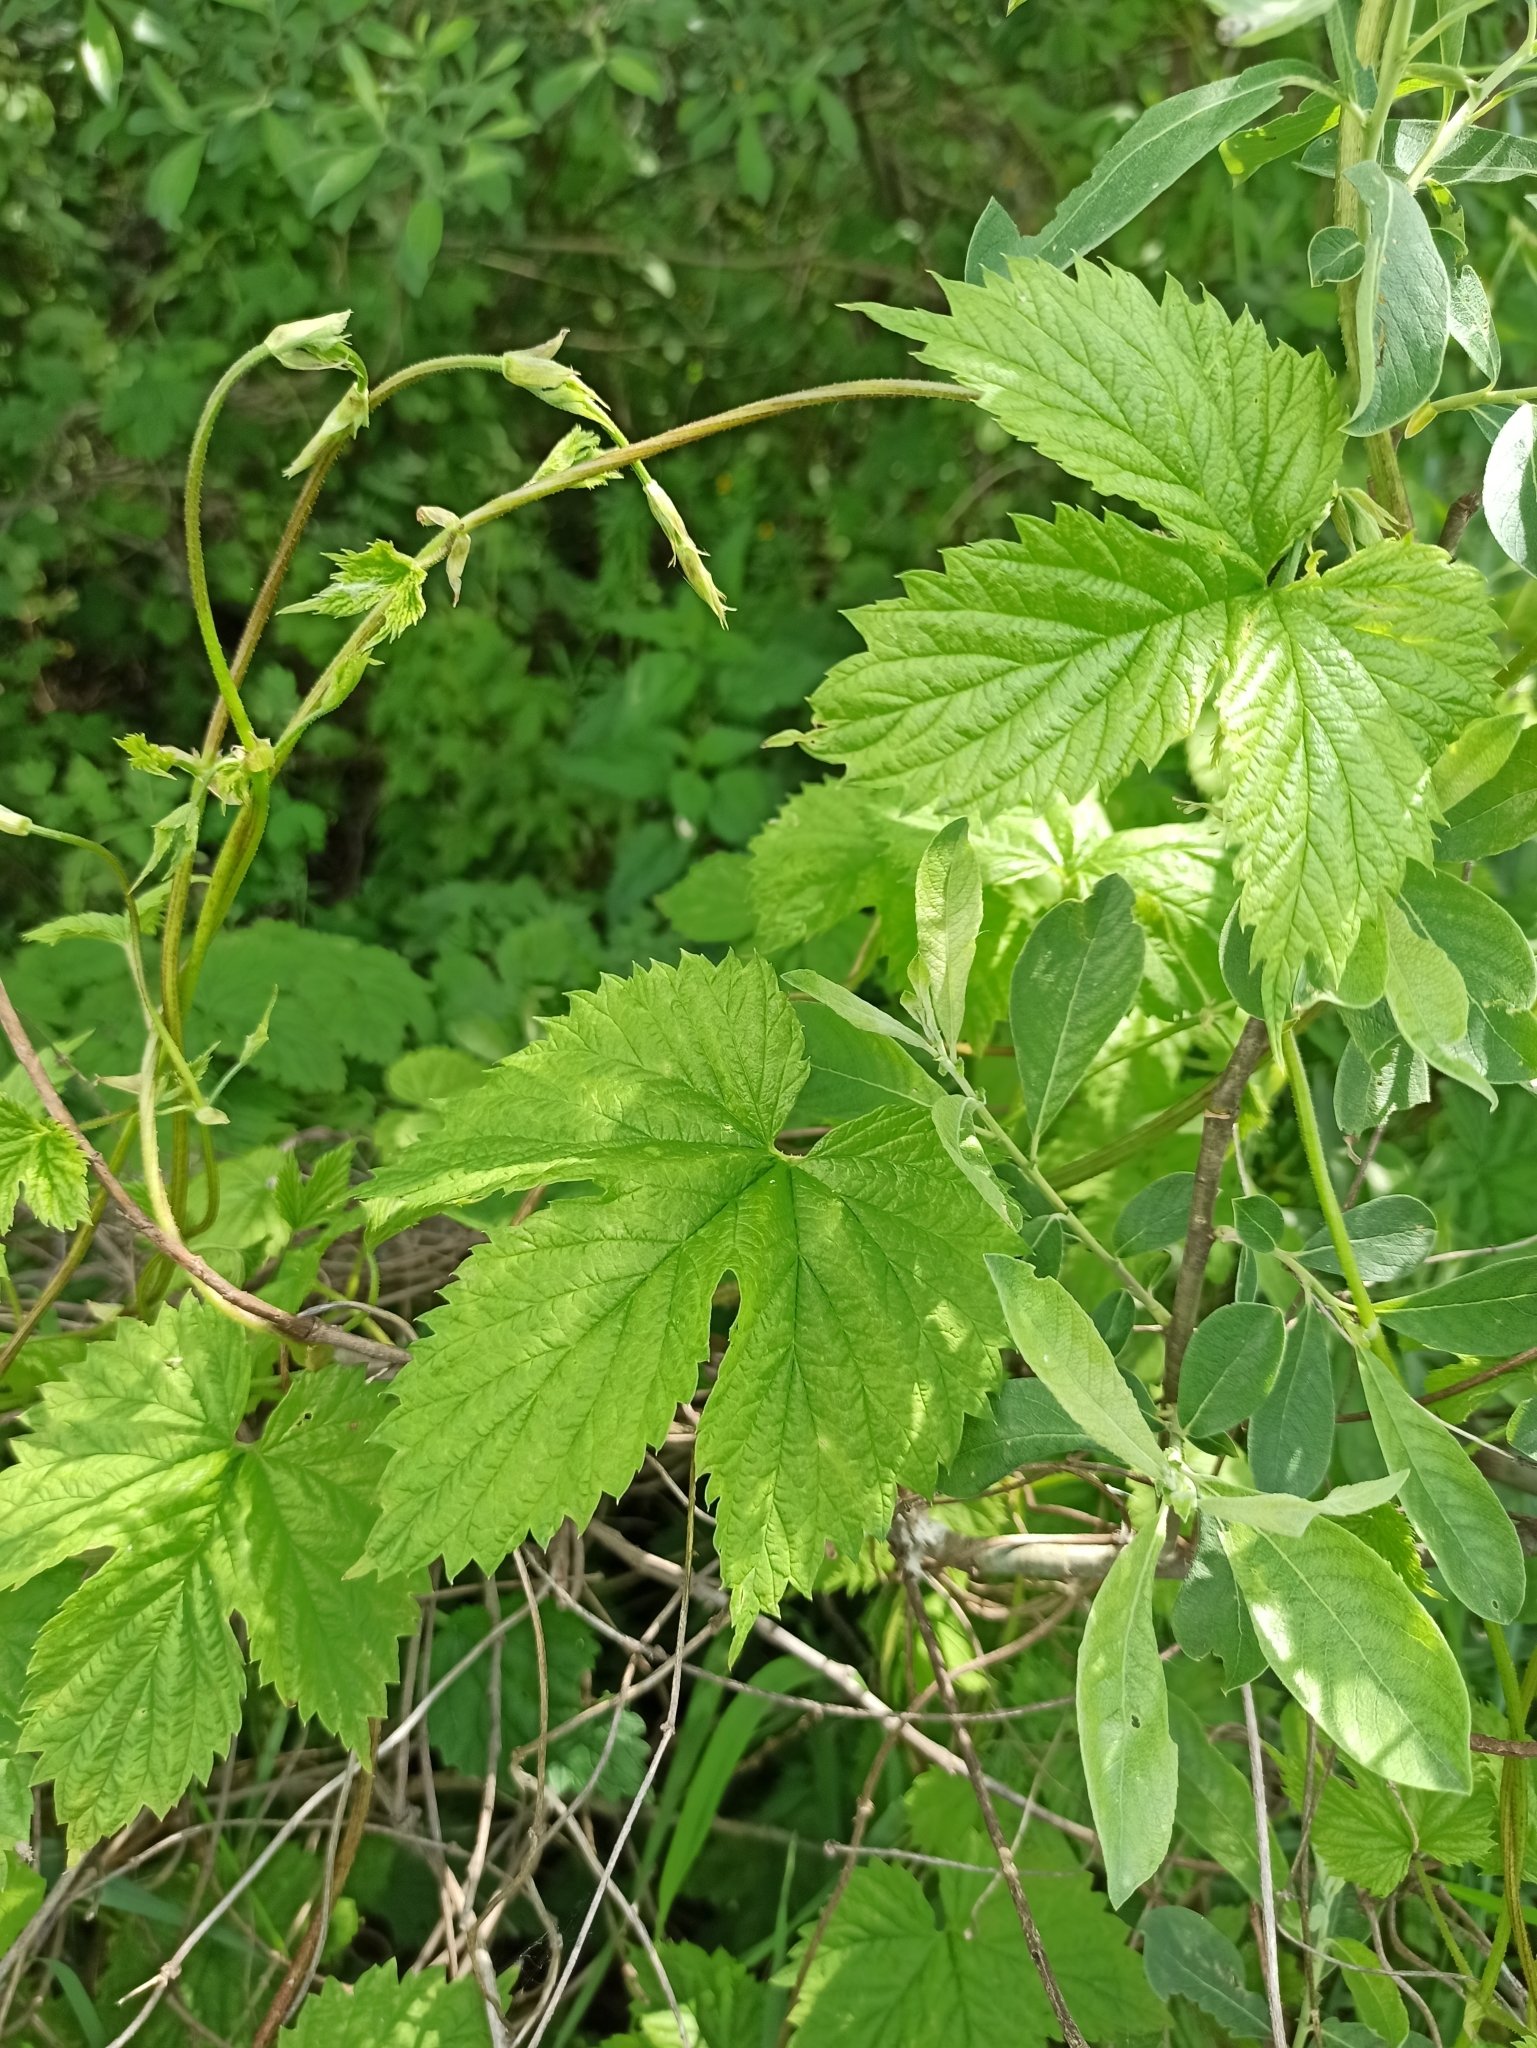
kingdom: Plantae
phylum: Tracheophyta
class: Magnoliopsida
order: Rosales
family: Cannabaceae
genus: Humulus
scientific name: Humulus lupulus
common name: Hop
